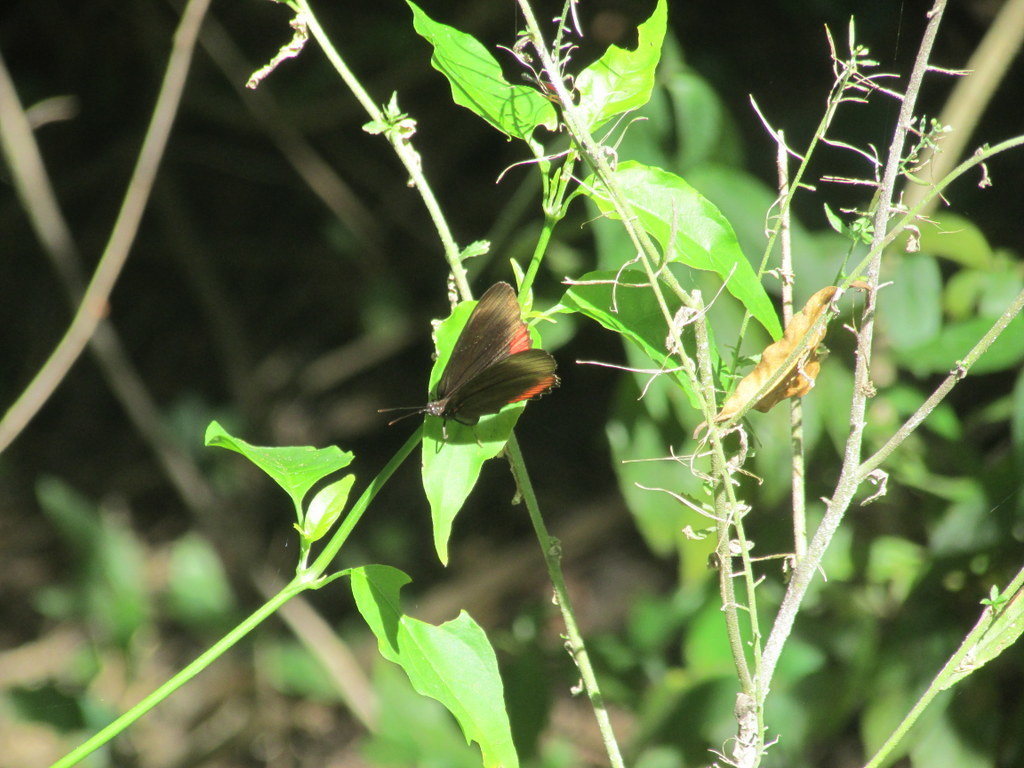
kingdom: Animalia
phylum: Arthropoda
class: Insecta
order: Lepidoptera
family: Sesiidae
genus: Sesia
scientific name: Sesia Biblis hyperia
